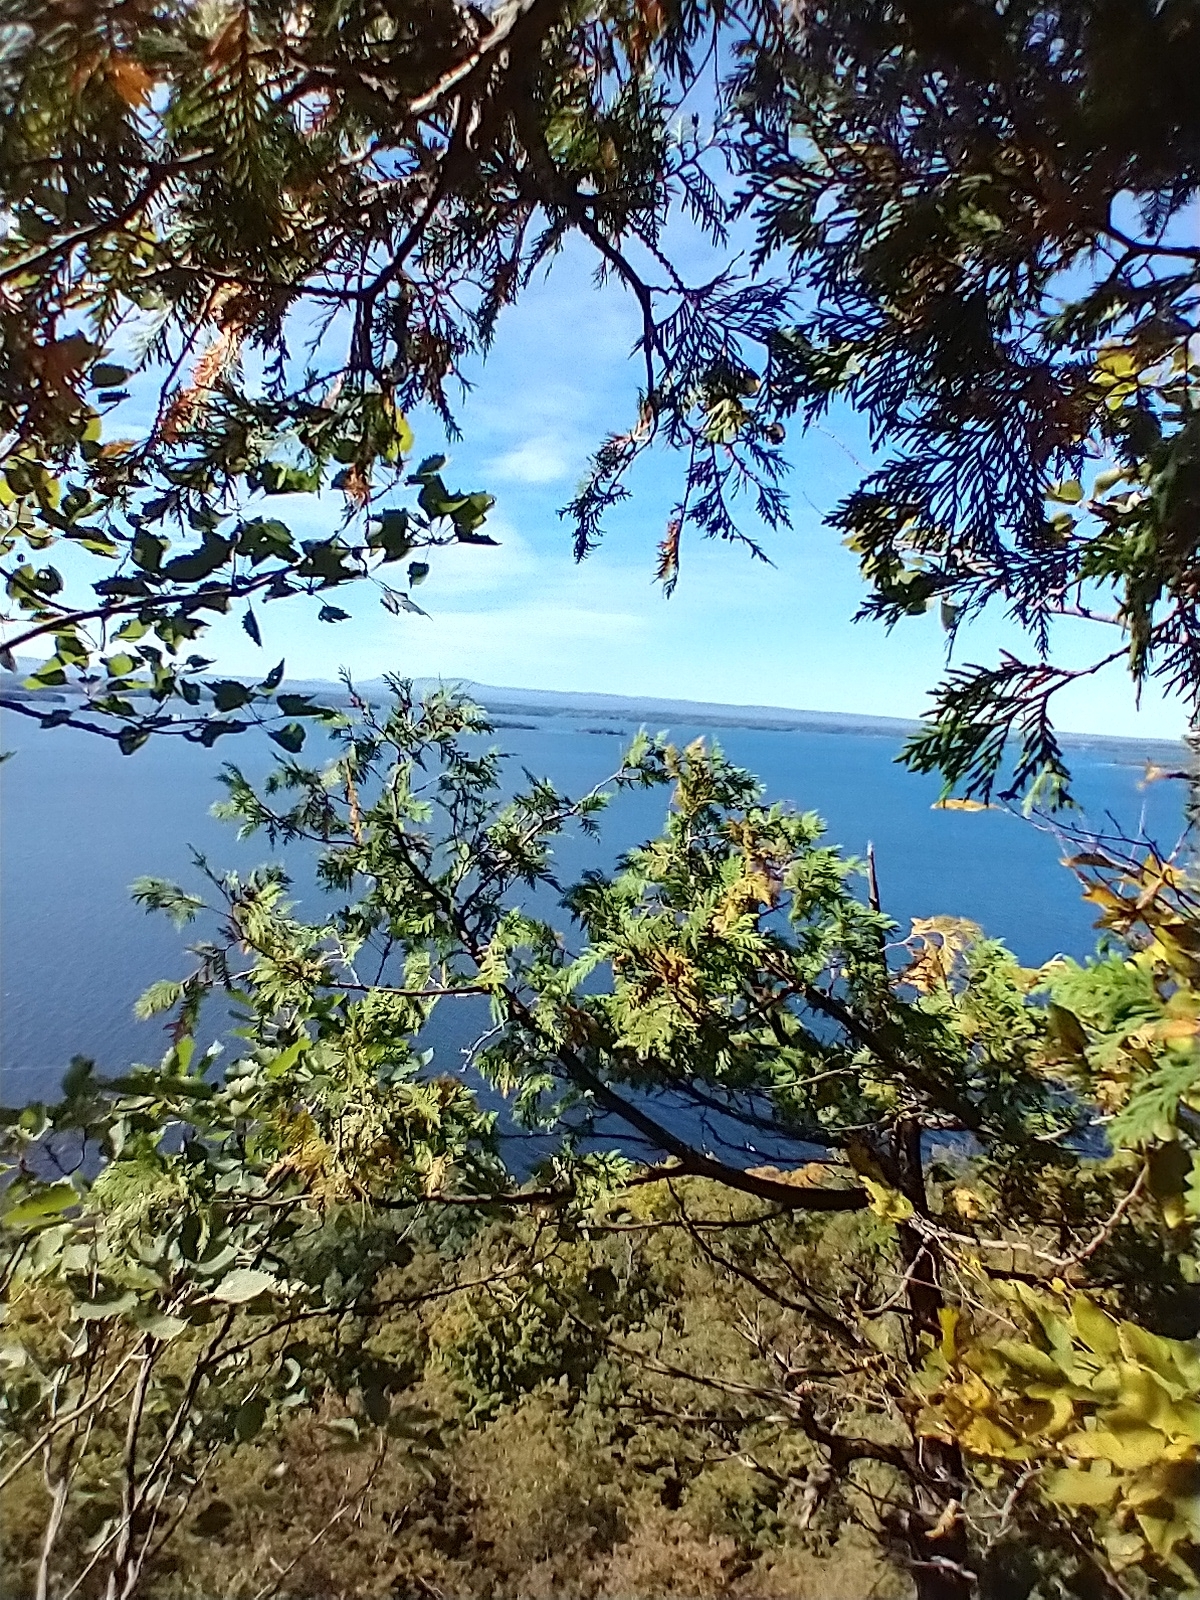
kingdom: Plantae
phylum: Tracheophyta
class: Pinopsida
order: Pinales
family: Cupressaceae
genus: Thuja
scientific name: Thuja occidentalis
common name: Northern white-cedar
